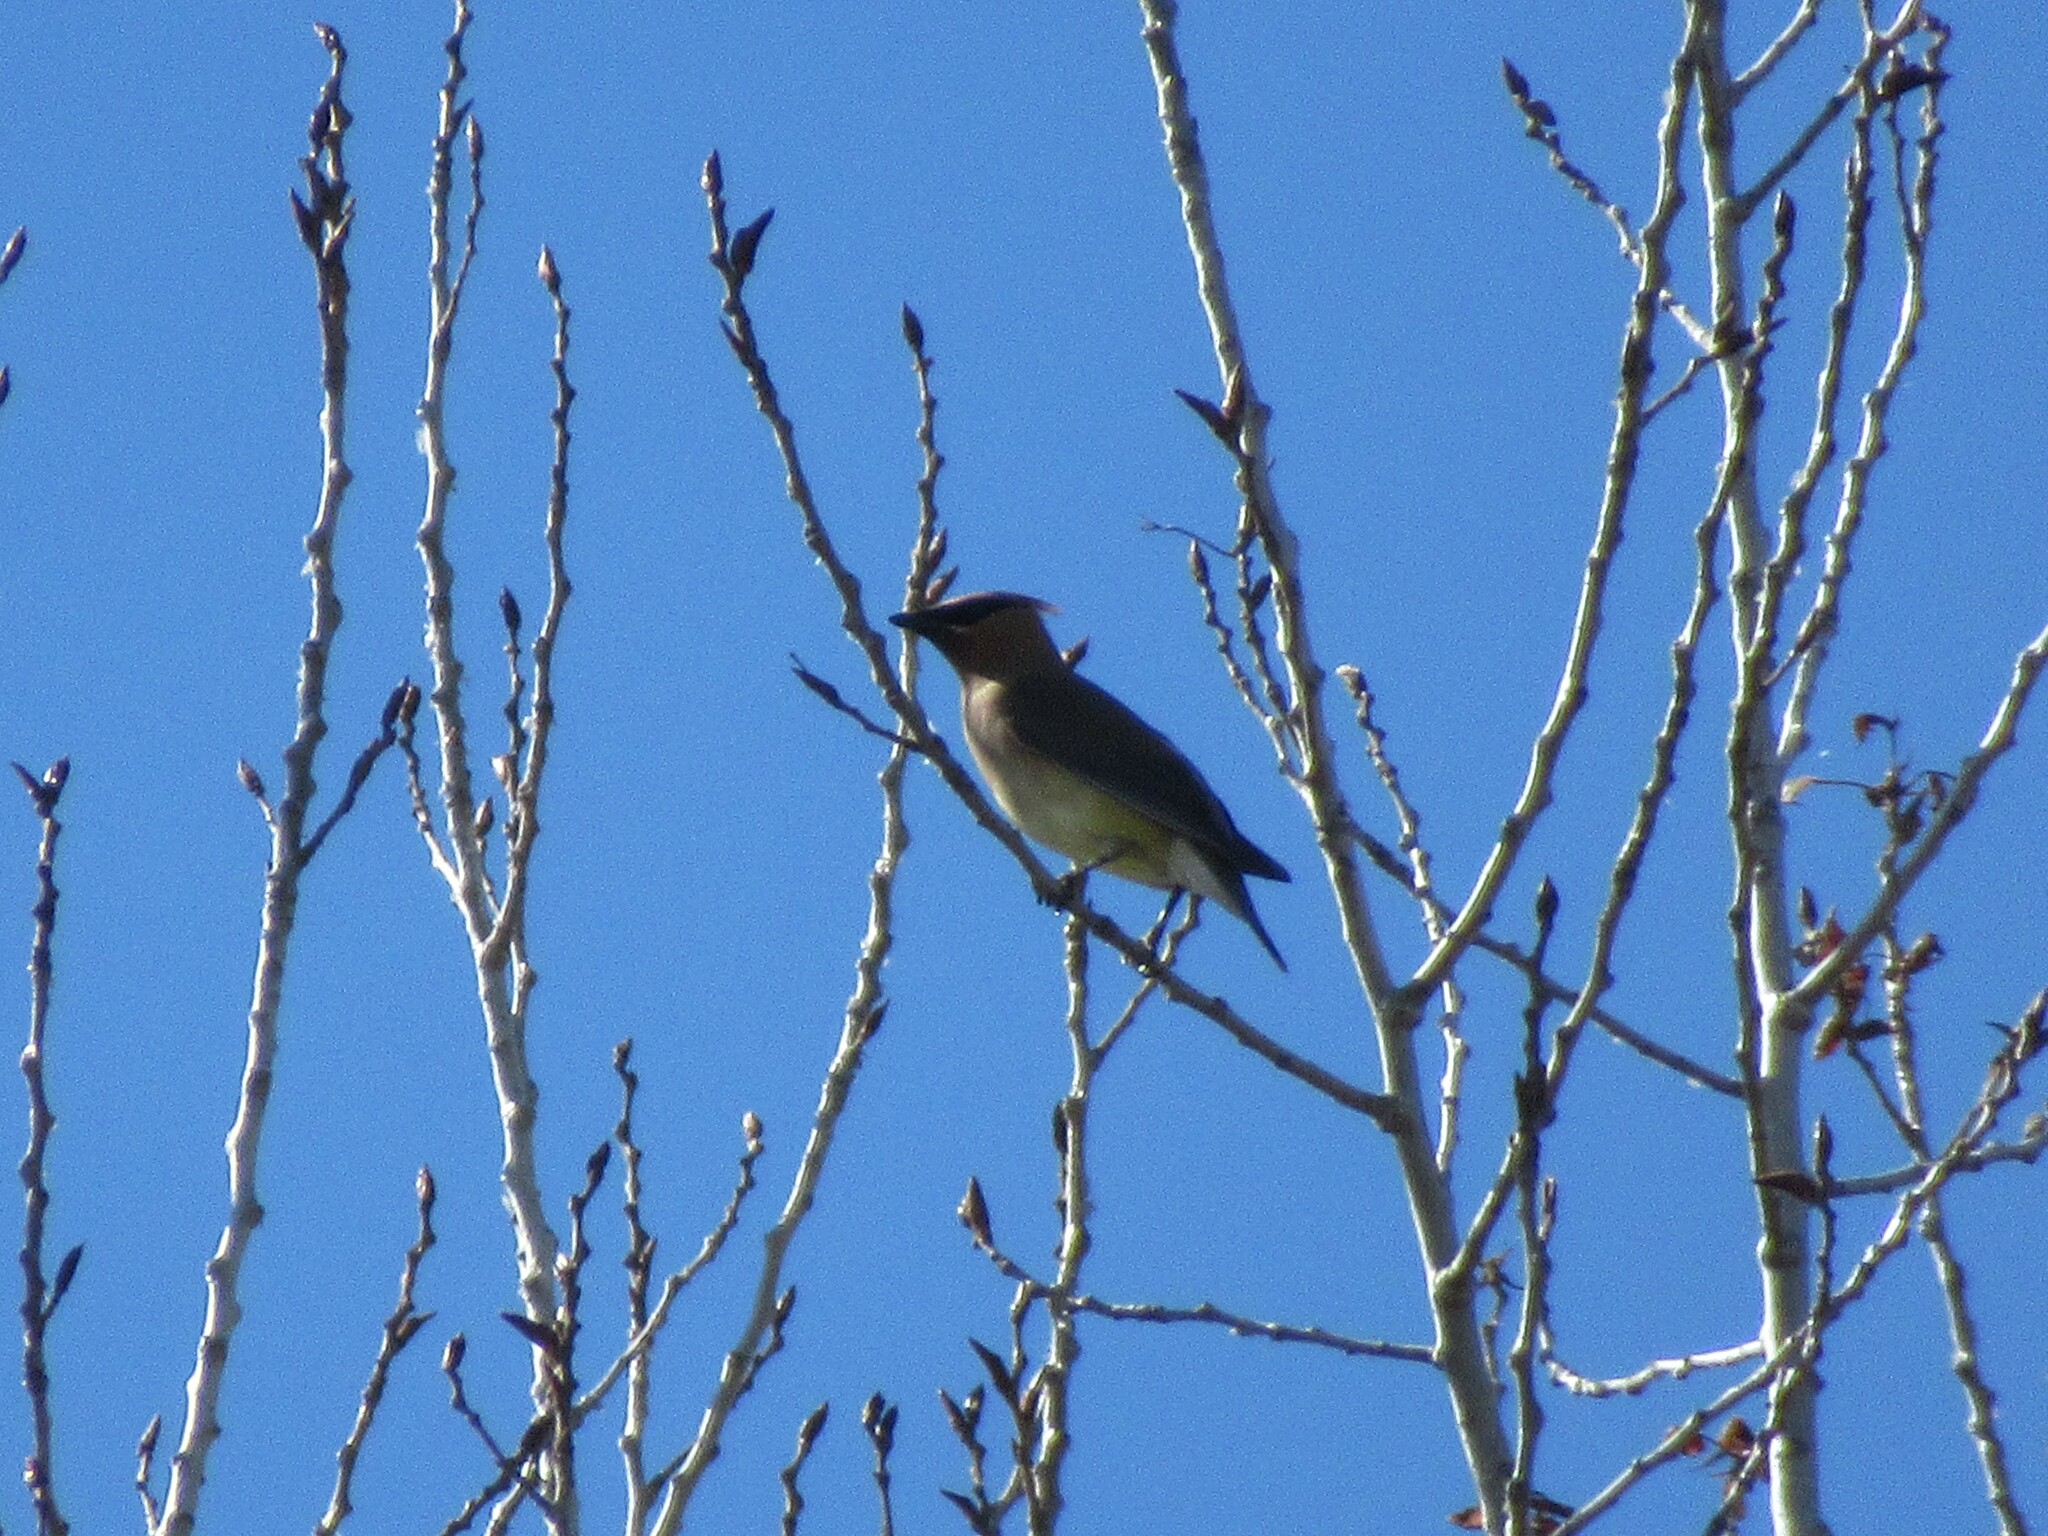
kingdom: Animalia
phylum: Chordata
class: Aves
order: Passeriformes
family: Bombycillidae
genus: Bombycilla
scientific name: Bombycilla cedrorum
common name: Cedar waxwing
